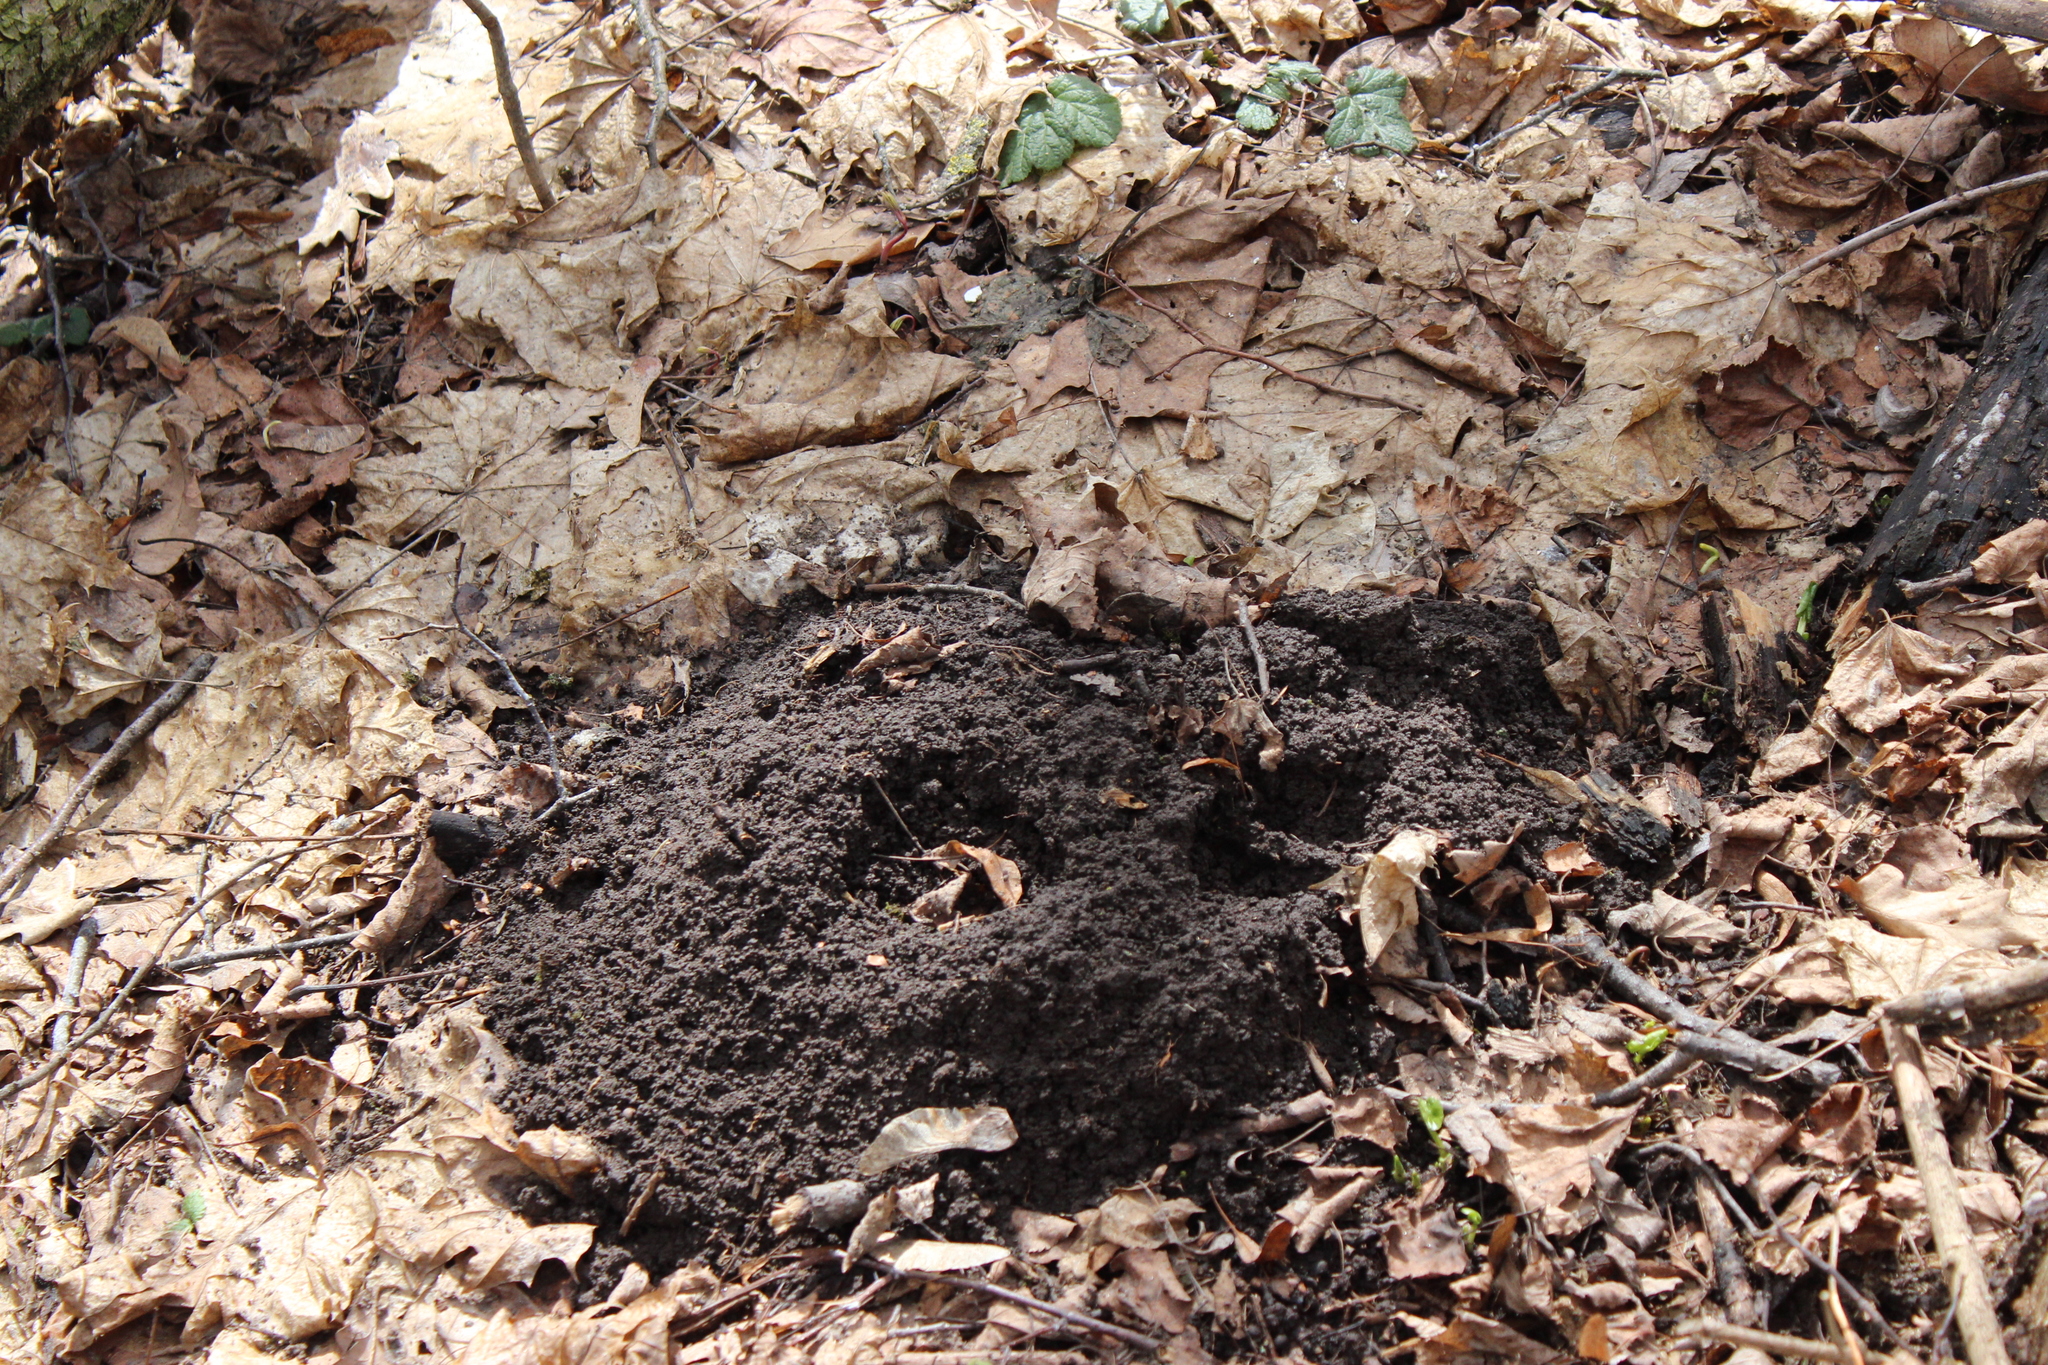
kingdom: Animalia
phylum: Chordata
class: Mammalia
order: Soricomorpha
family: Talpidae
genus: Talpa
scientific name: Talpa europaea
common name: European mole
